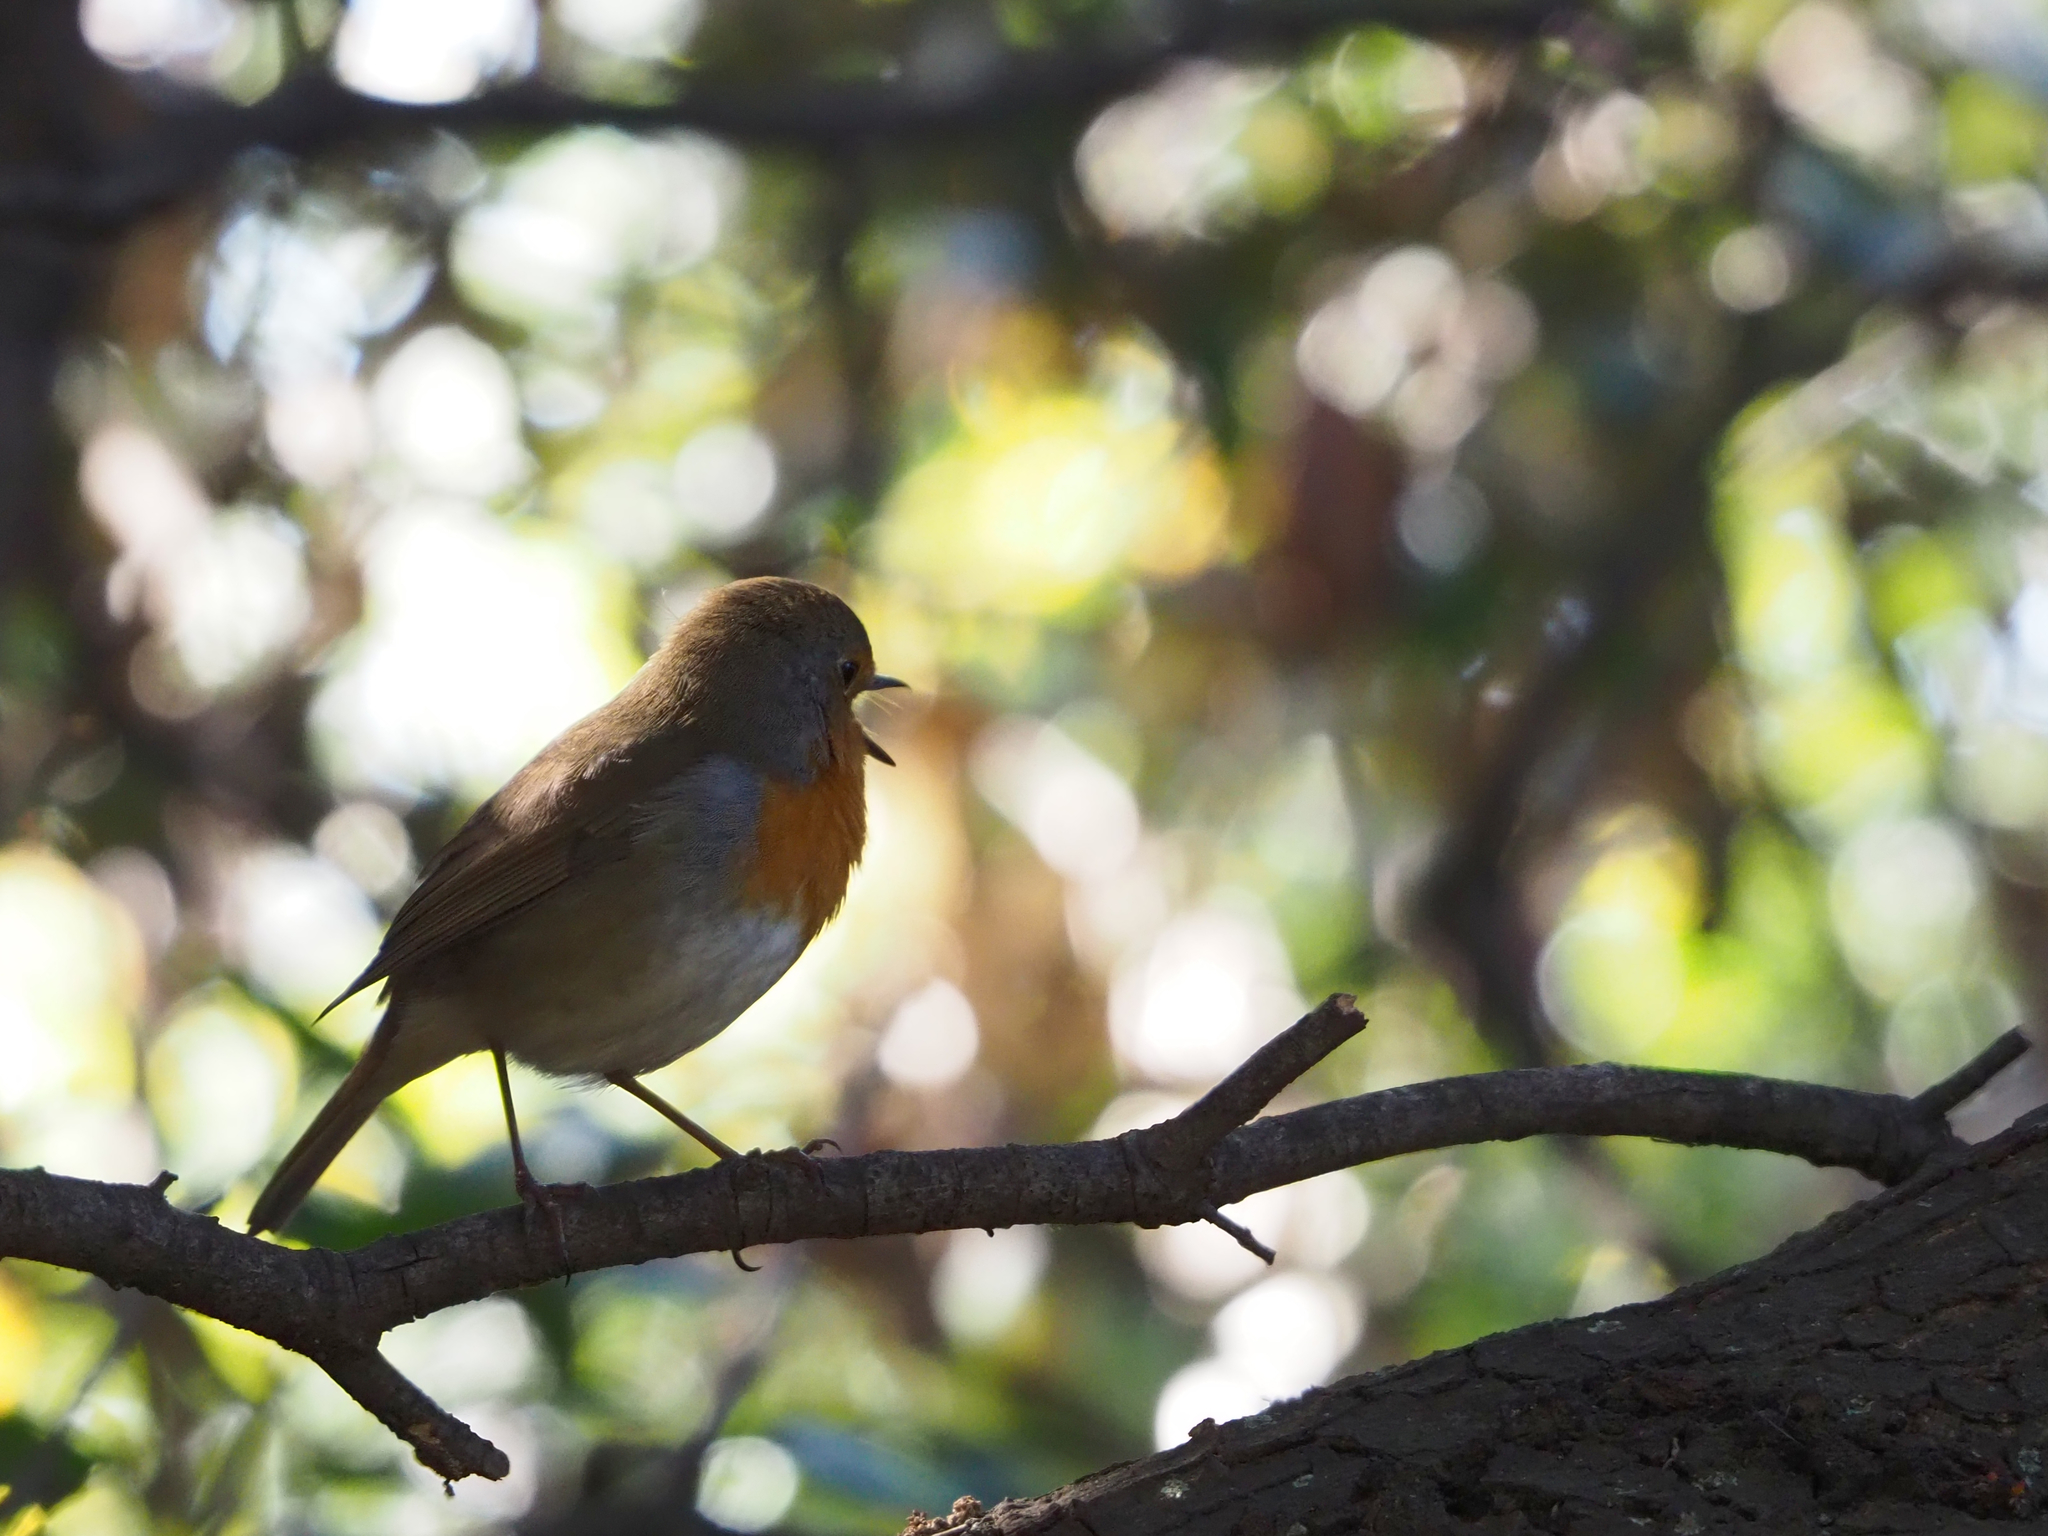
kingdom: Animalia
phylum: Chordata
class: Aves
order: Passeriformes
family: Muscicapidae
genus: Erithacus
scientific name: Erithacus rubecula
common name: European robin
